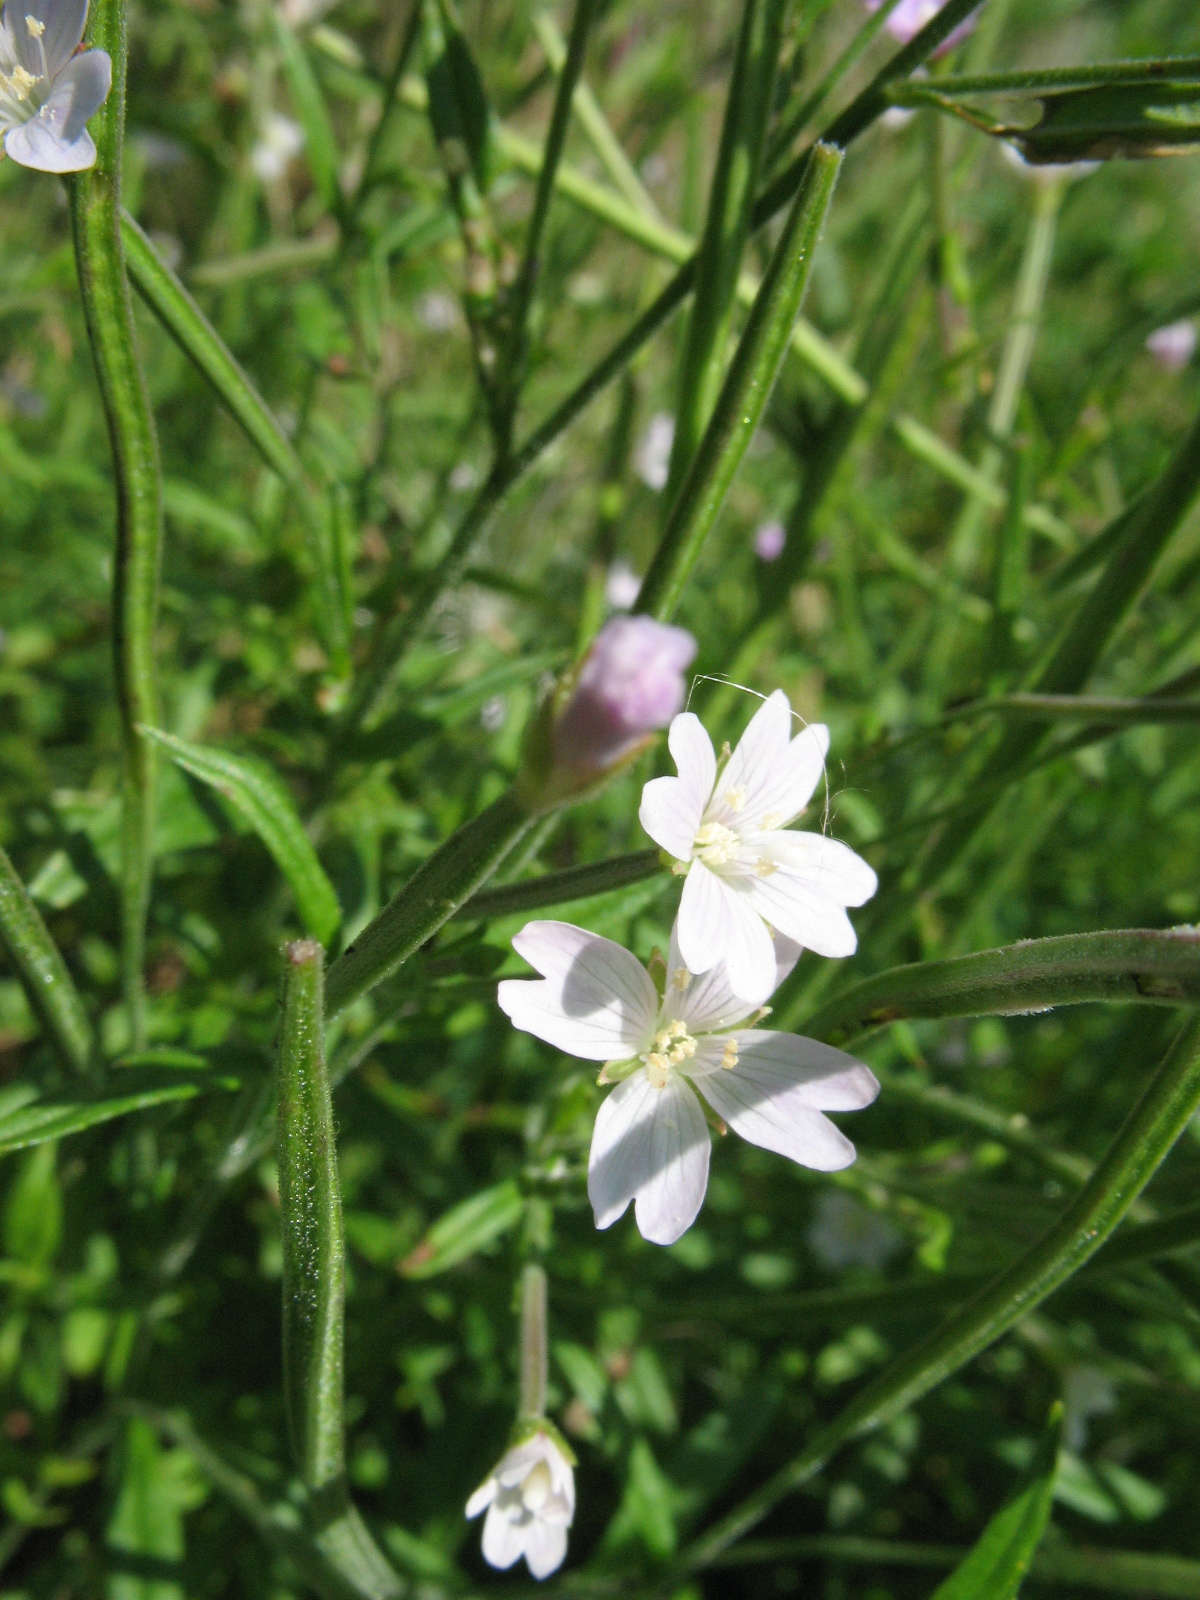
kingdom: Plantae
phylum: Tracheophyta
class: Magnoliopsida
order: Myrtales
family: Onagraceae
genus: Epilobium
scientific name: Epilobium palustre
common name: Marsh willowherb
